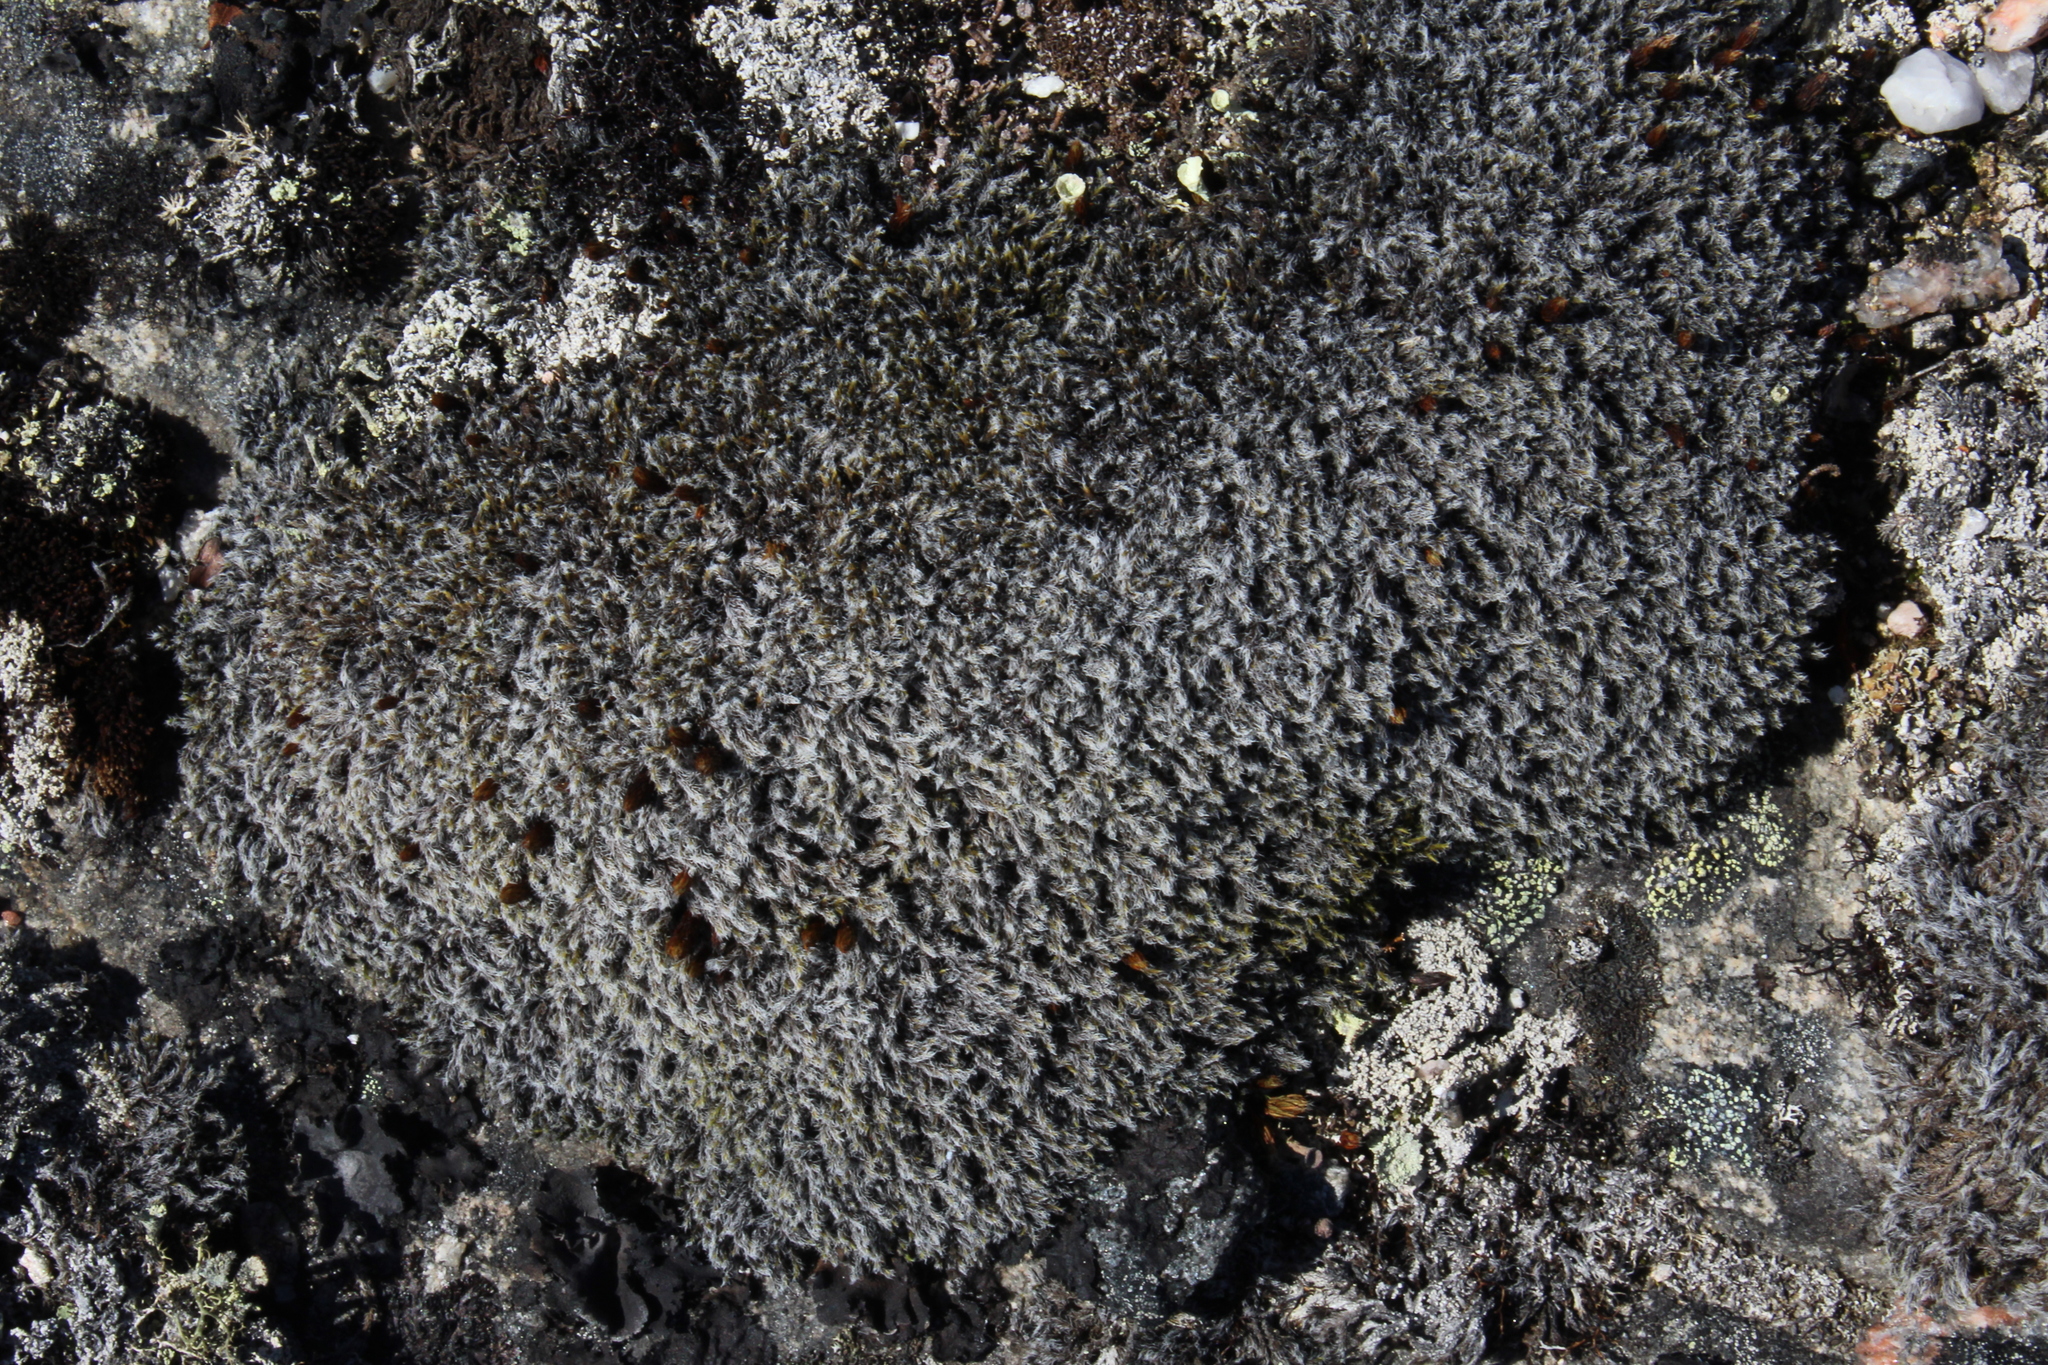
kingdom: Plantae
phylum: Bryophyta
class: Bryopsida
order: Grimmiales
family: Grimmiaceae
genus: Racomitrium
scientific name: Racomitrium lanuginosum
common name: Hoary rock moss
